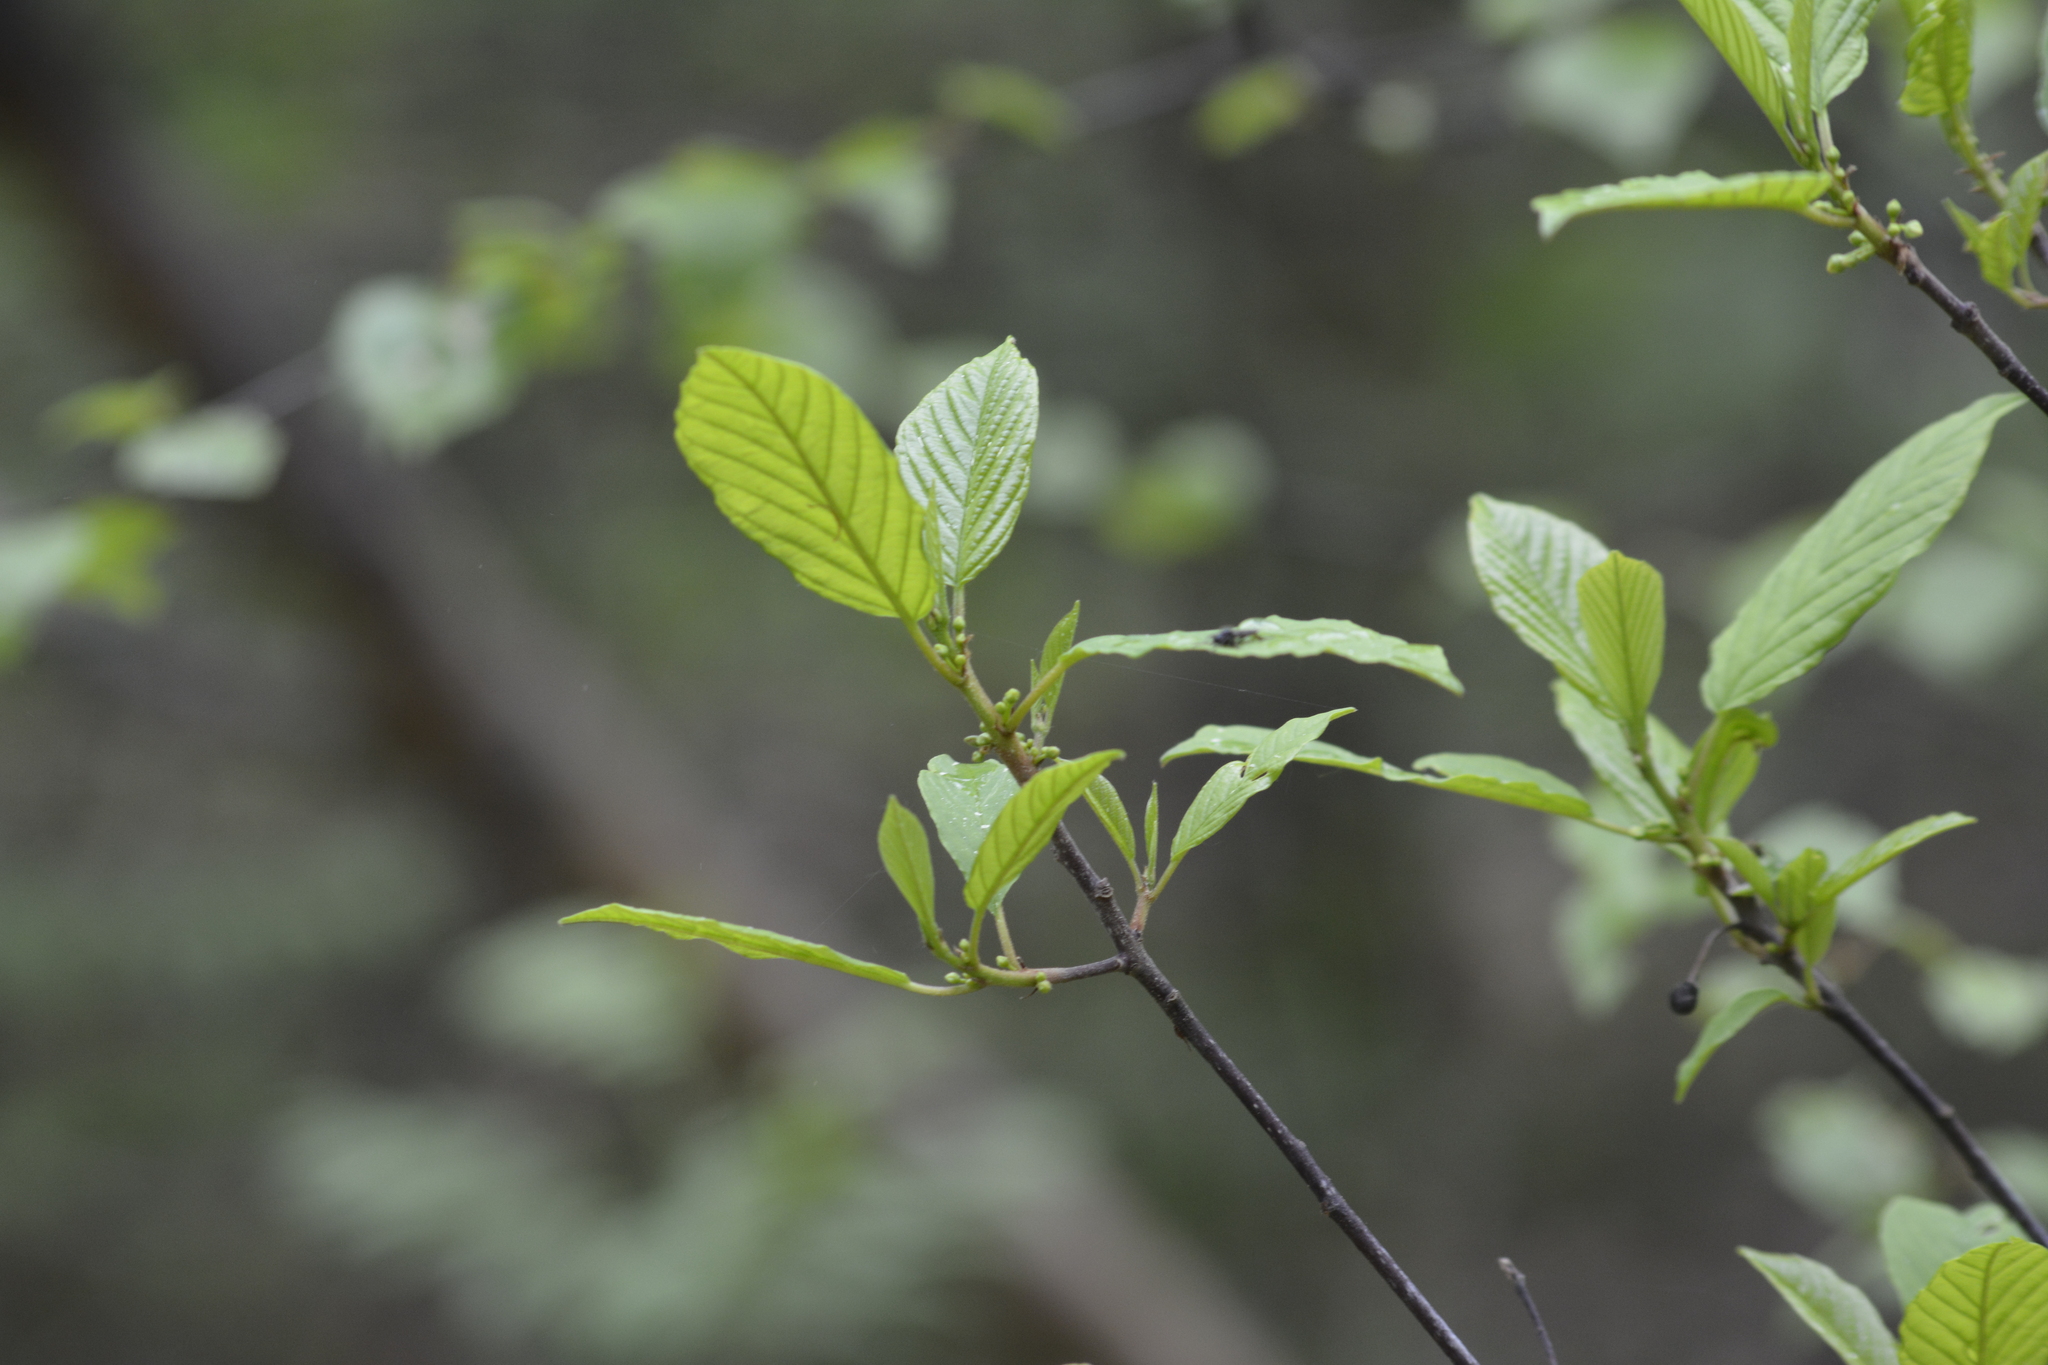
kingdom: Plantae
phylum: Tracheophyta
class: Magnoliopsida
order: Rosales
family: Rhamnaceae
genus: Frangula
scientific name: Frangula alnus
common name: Alder buckthorn
